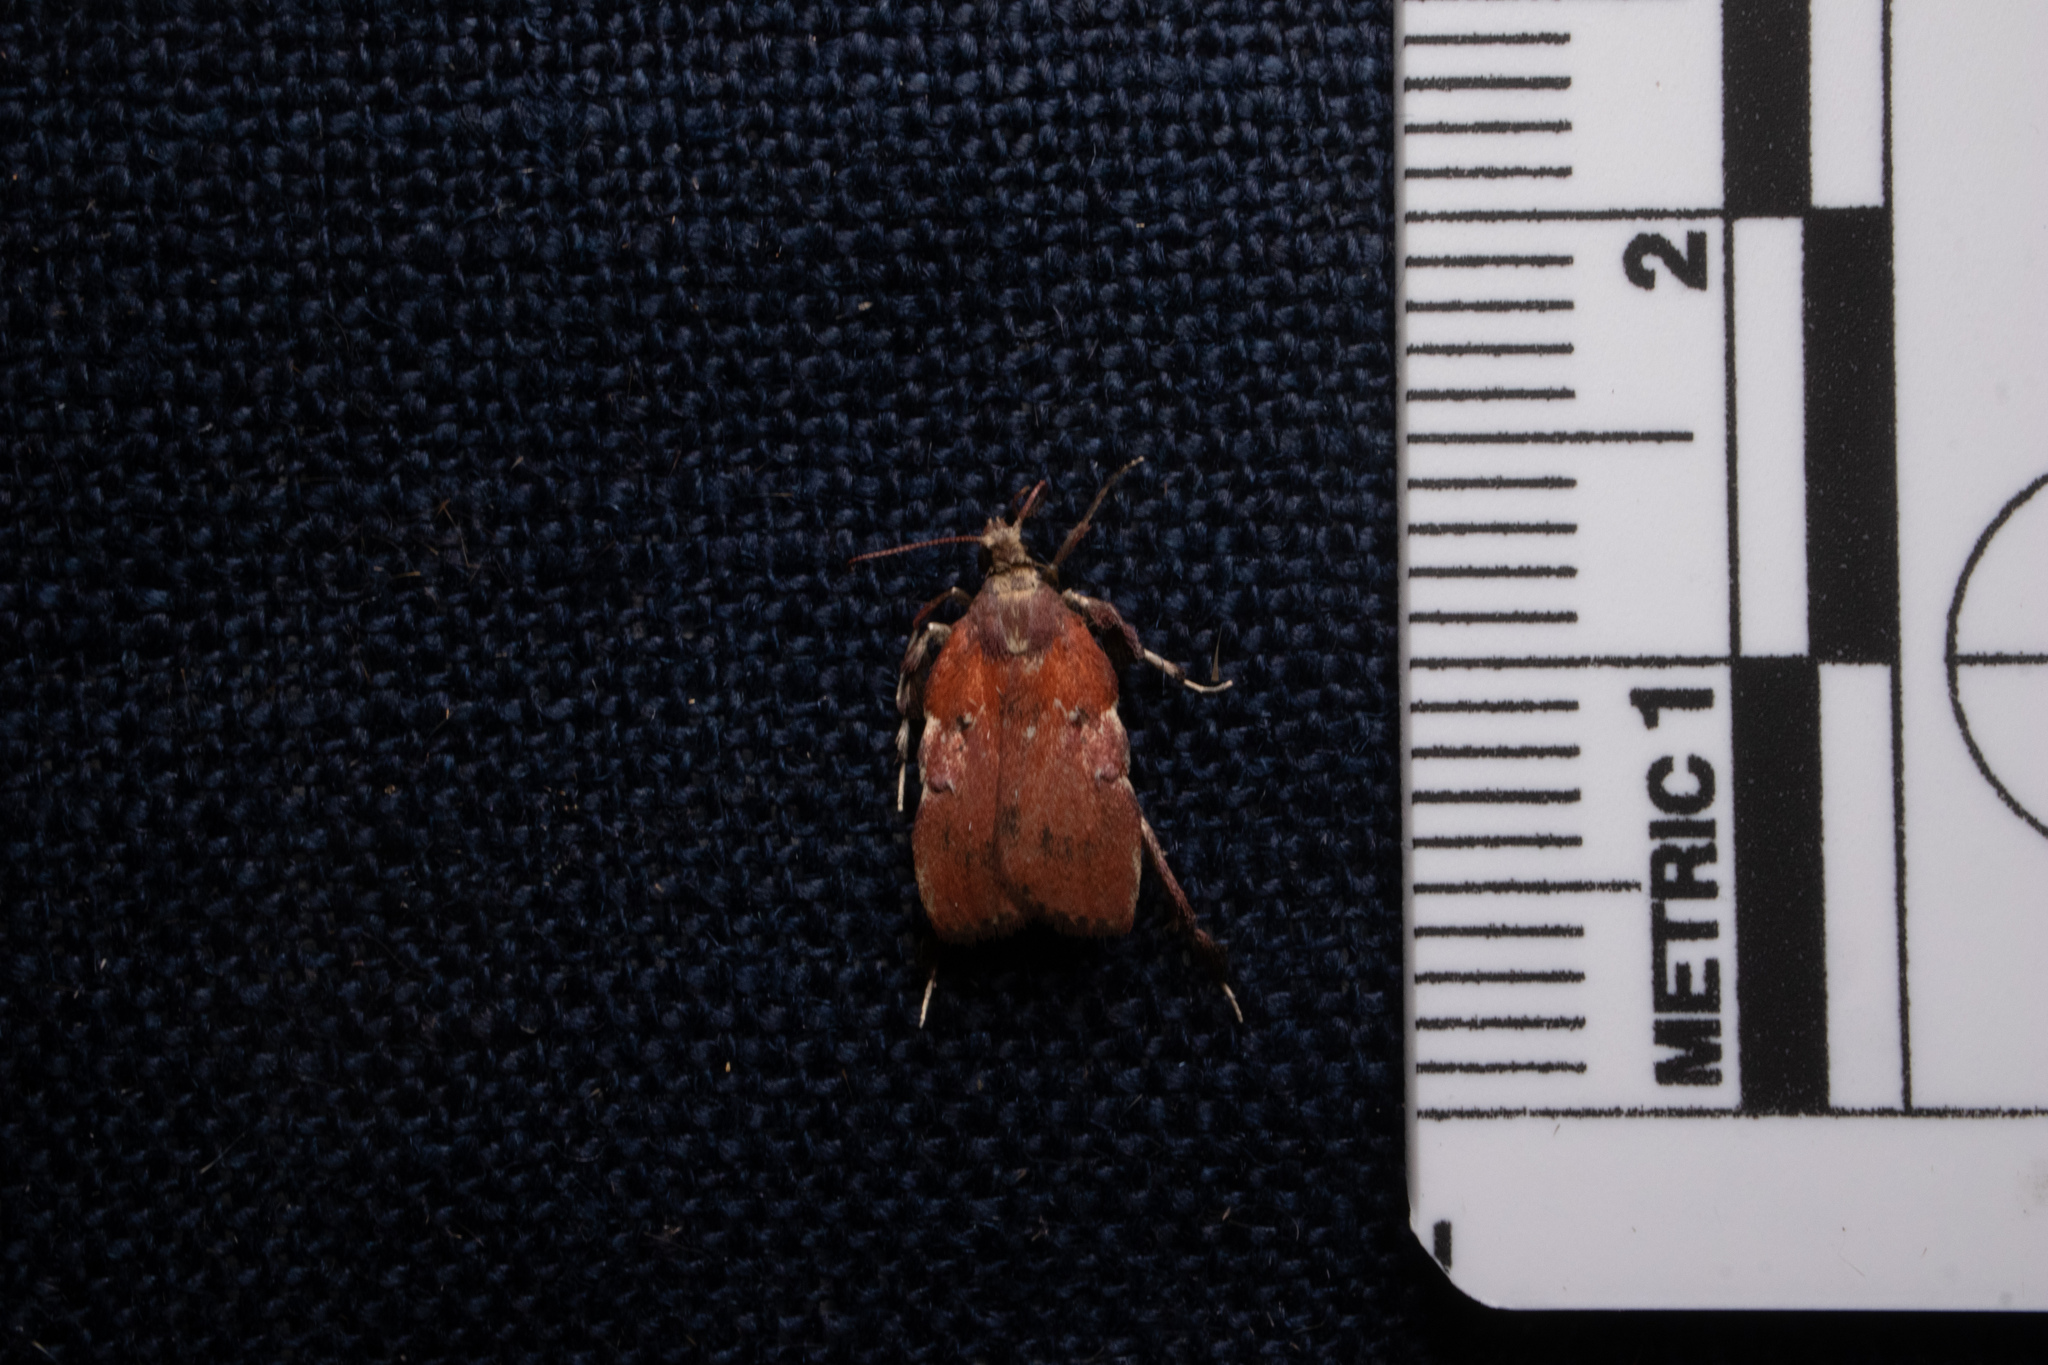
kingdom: Animalia
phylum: Arthropoda
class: Insecta
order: Lepidoptera
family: Pyralidae
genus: Galasa
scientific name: Galasa nigrinodis
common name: Boxwood leaftier moth
